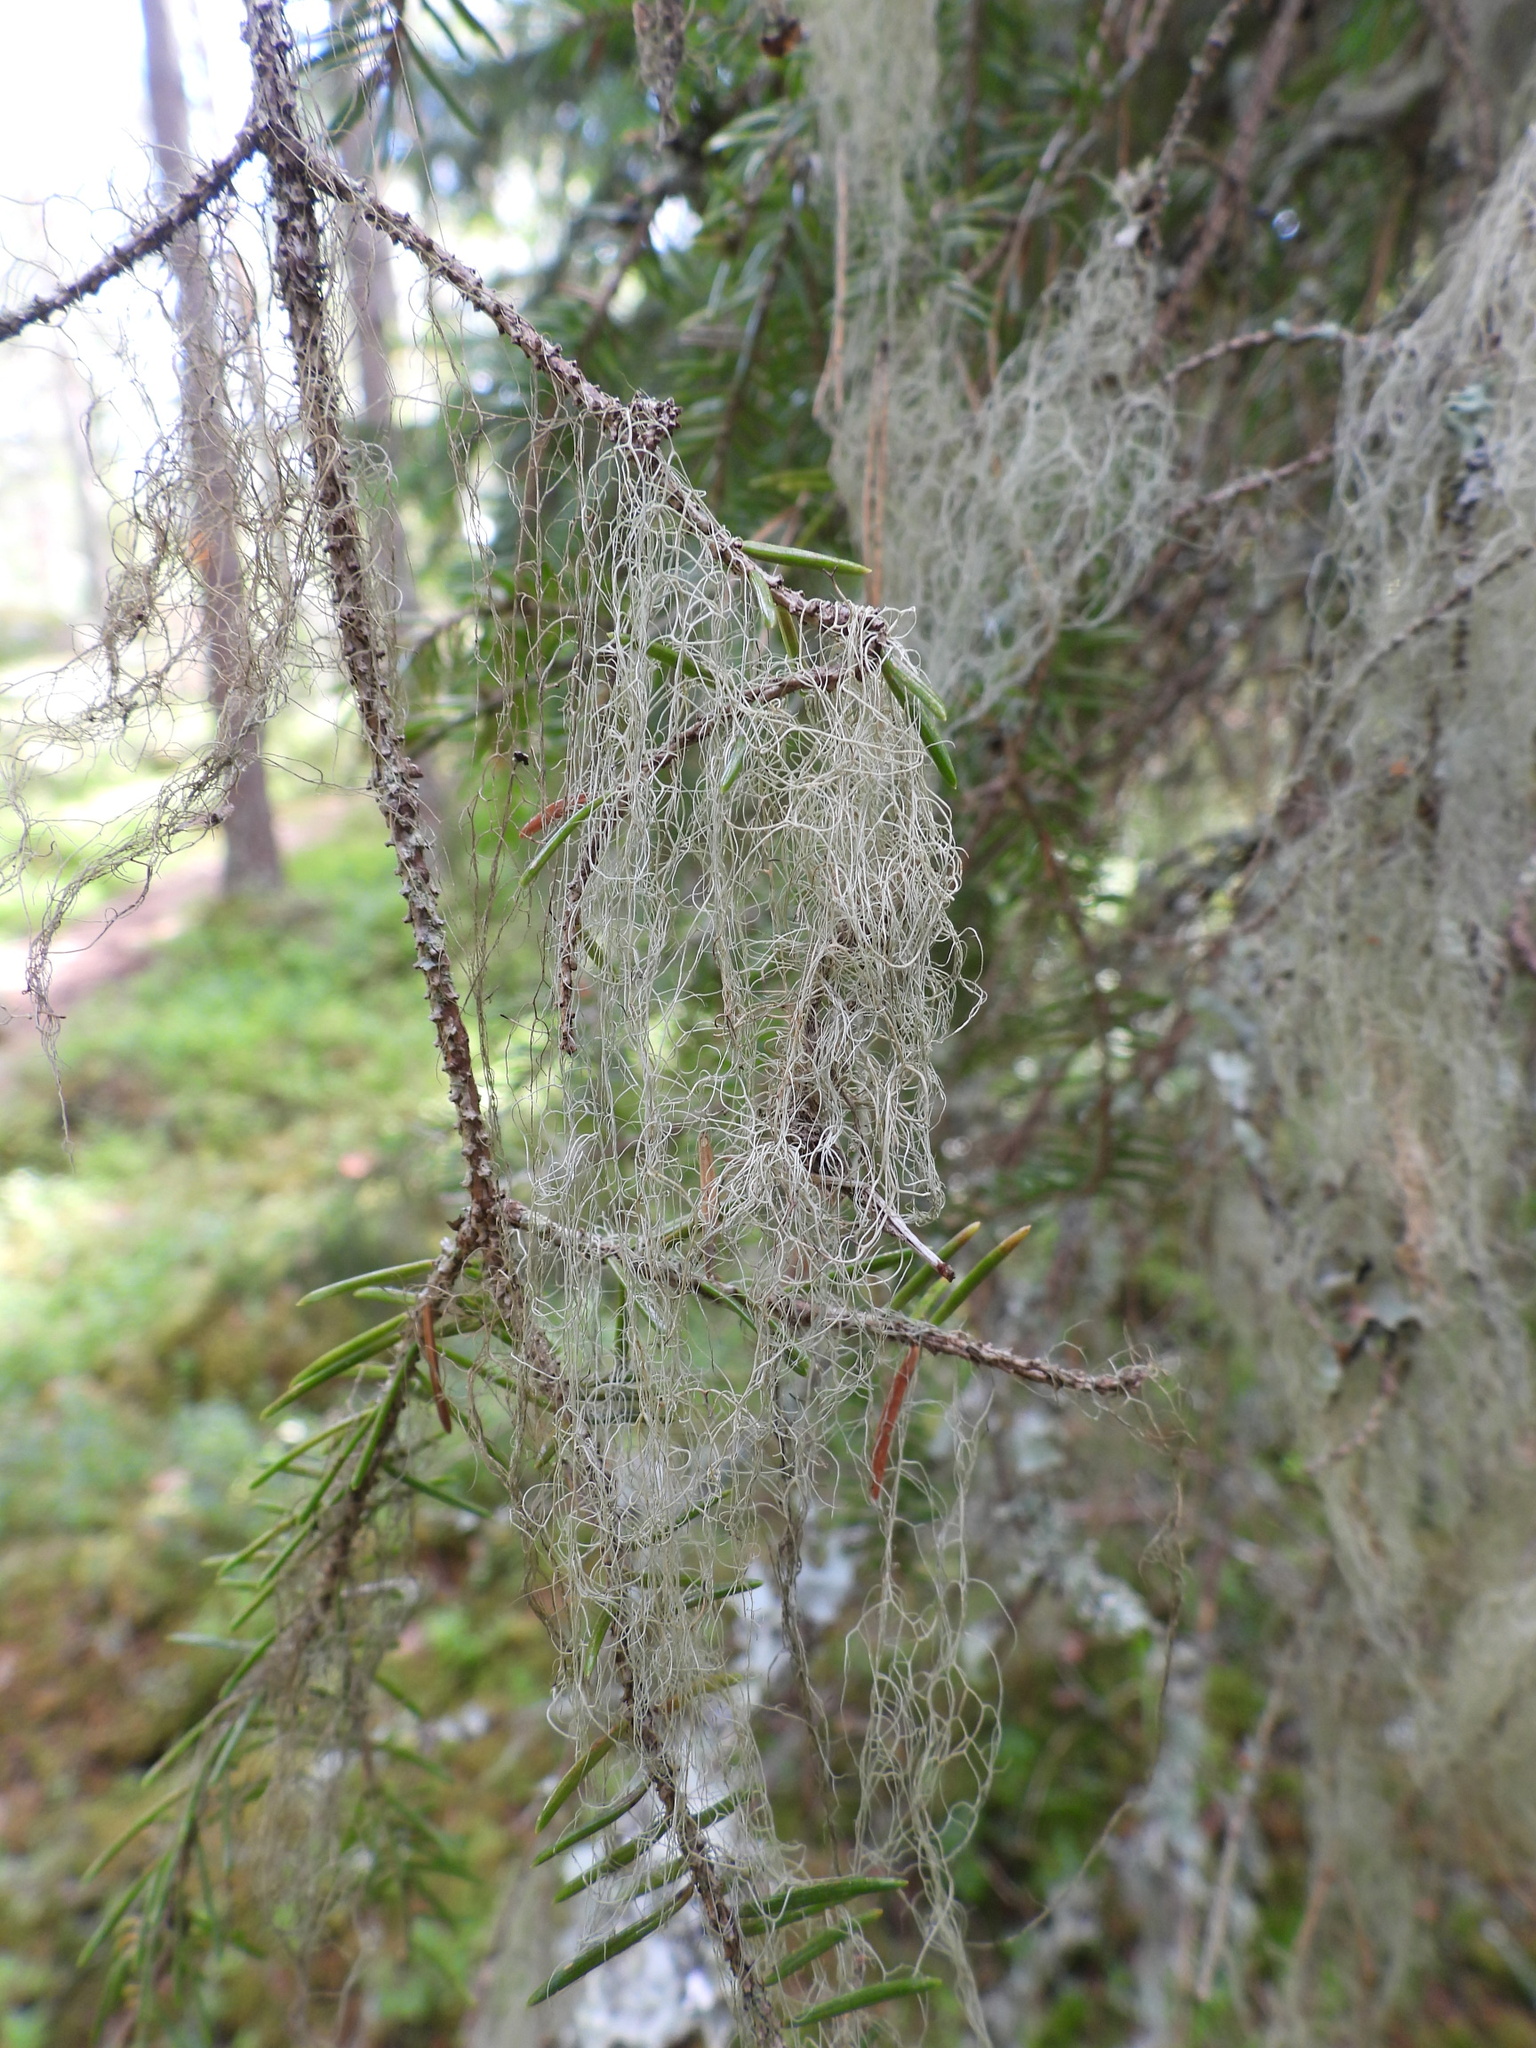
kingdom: Fungi
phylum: Ascomycota
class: Lecanoromycetes
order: Lecanorales
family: Parmeliaceae
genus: Bryoria
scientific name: Bryoria fuscescens
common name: Pale-footed horsehair lichen
